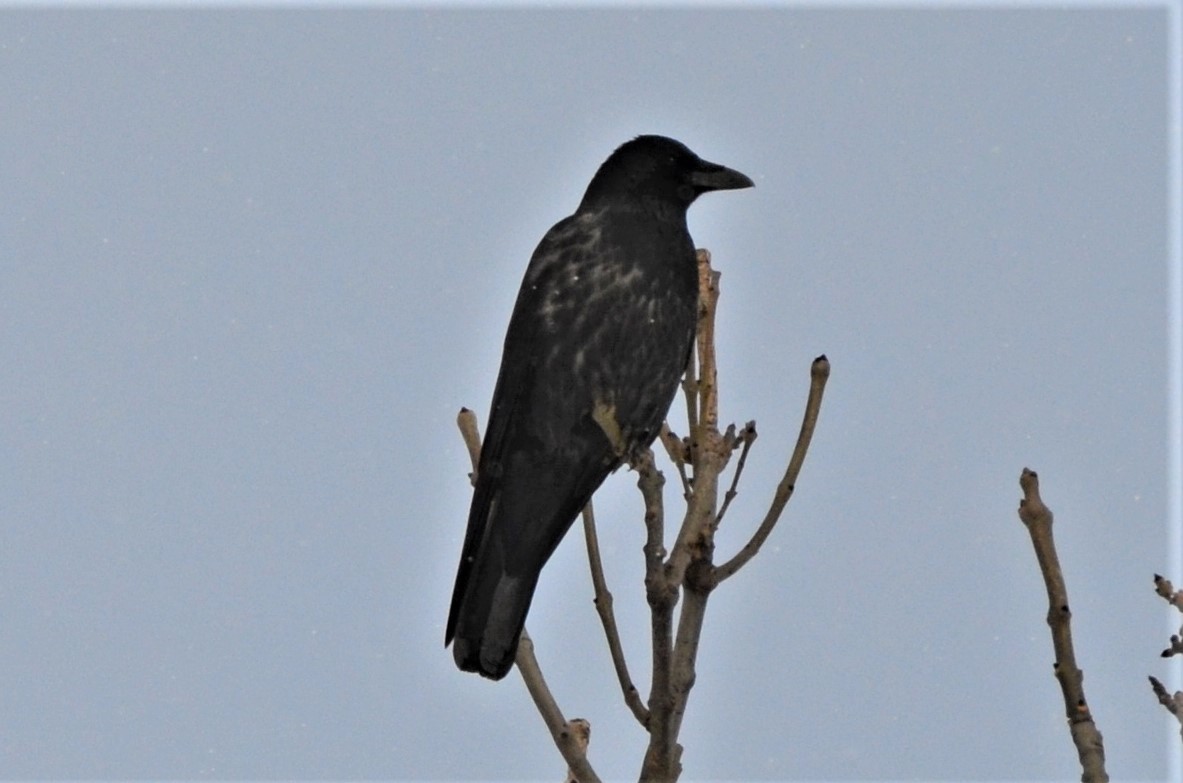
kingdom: Animalia
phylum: Chordata
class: Aves
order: Passeriformes
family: Corvidae
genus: Corvus
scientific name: Corvus
